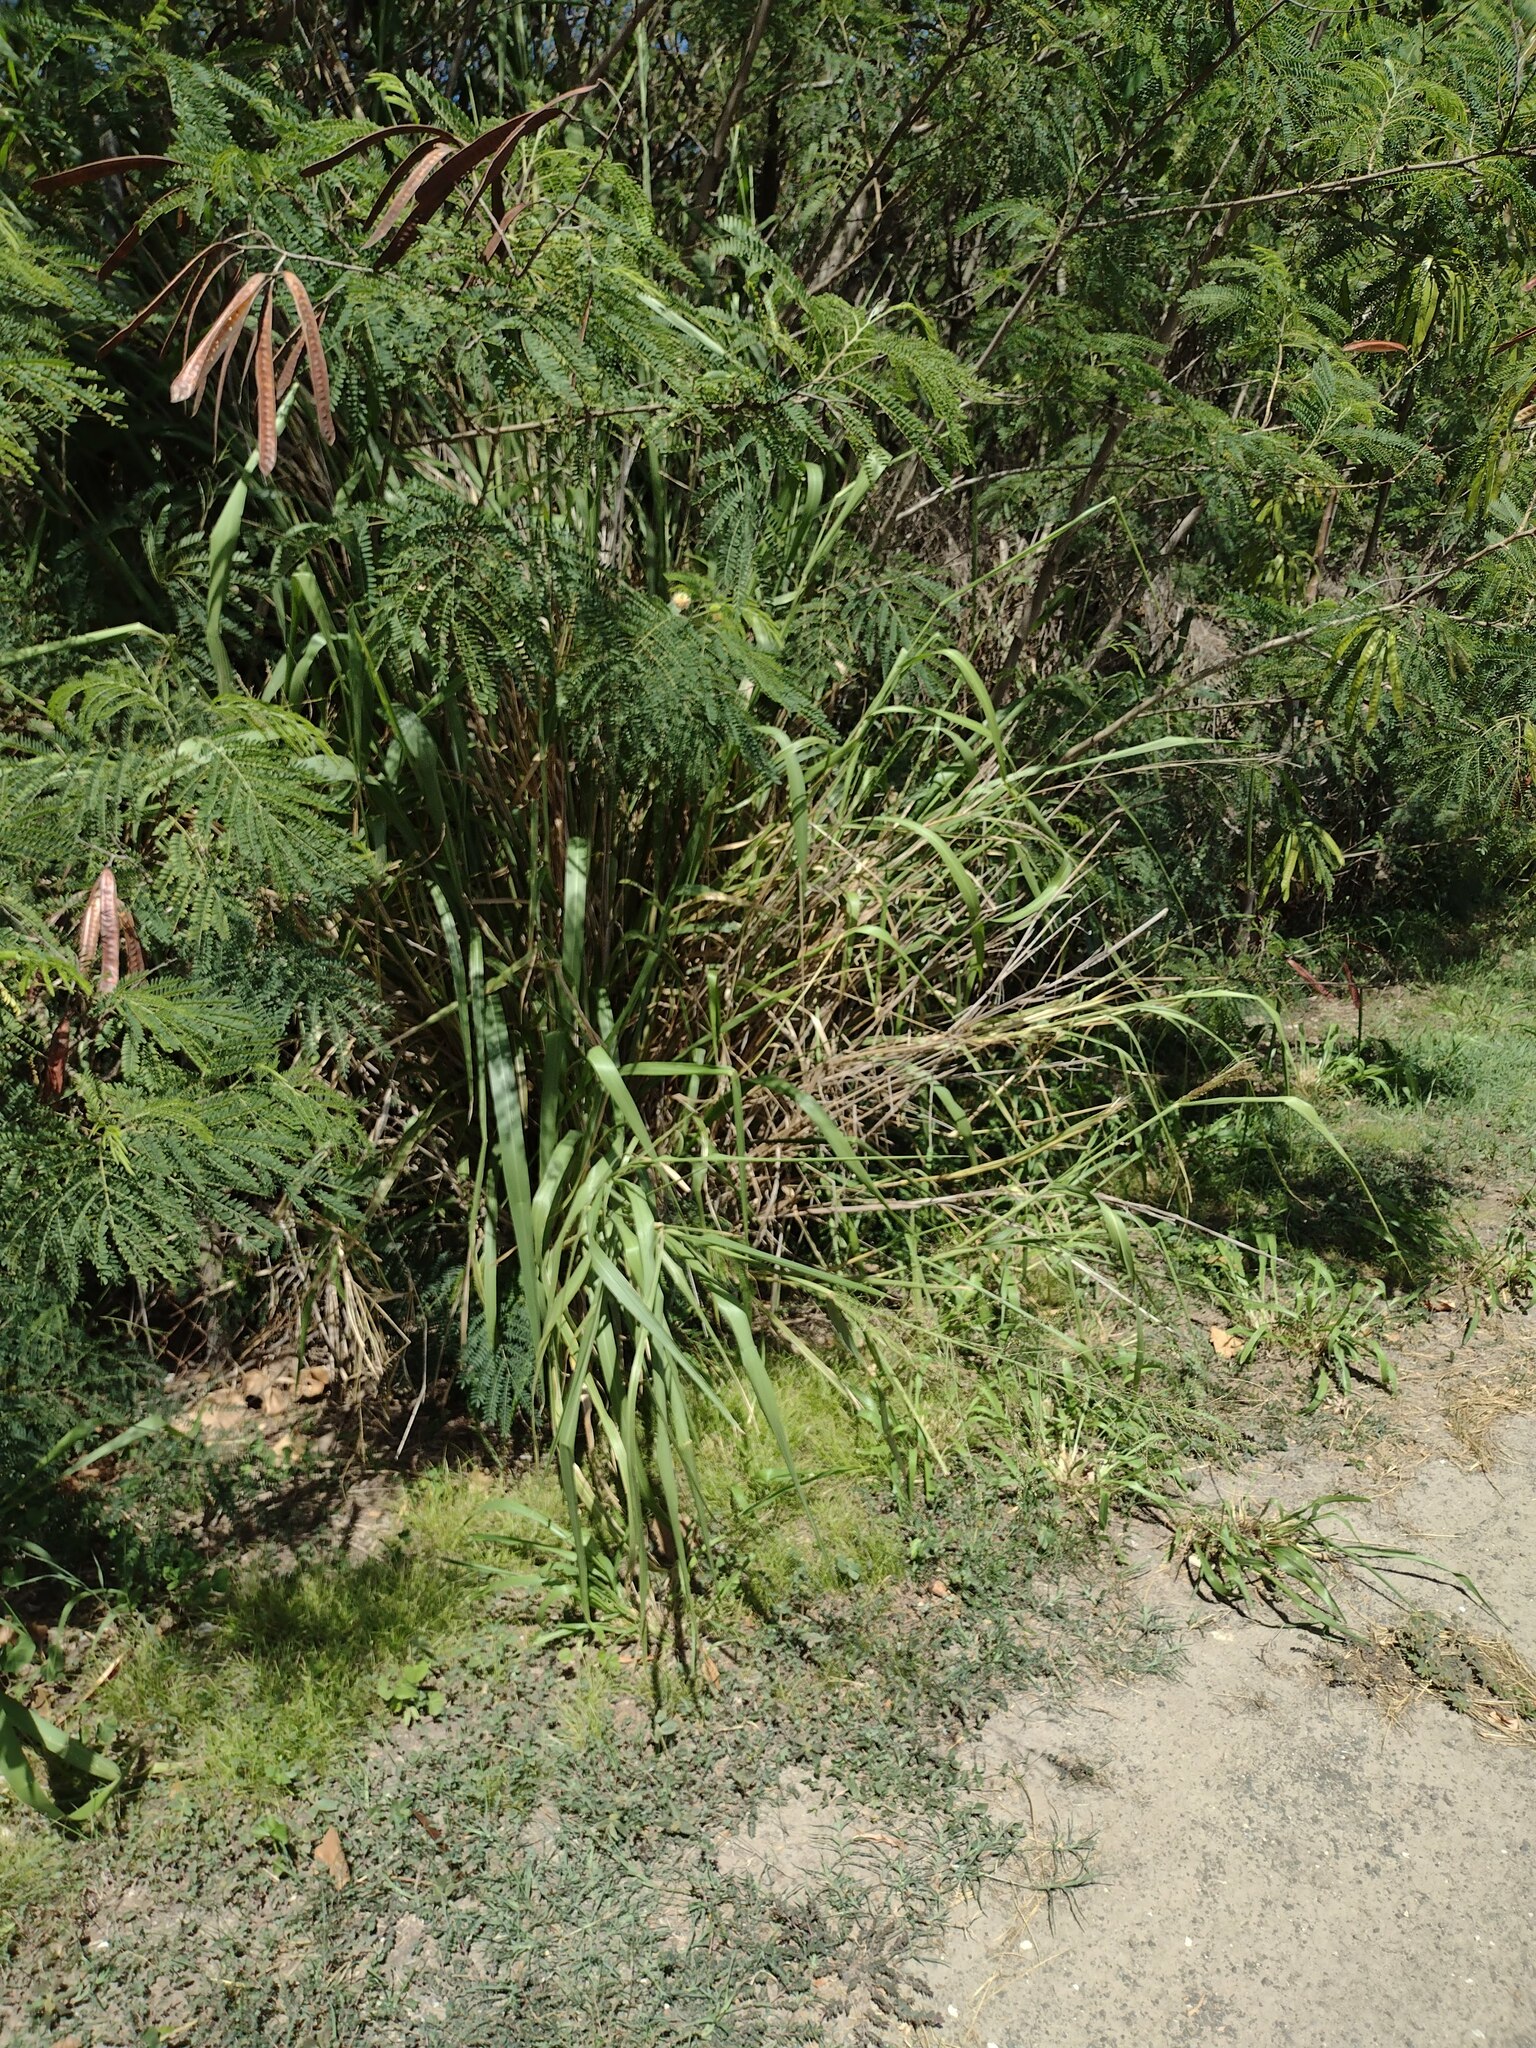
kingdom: Plantae
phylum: Tracheophyta
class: Liliopsida
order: Poales
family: Poaceae
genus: Megathyrsus
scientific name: Megathyrsus maximus
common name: Guineagrass
